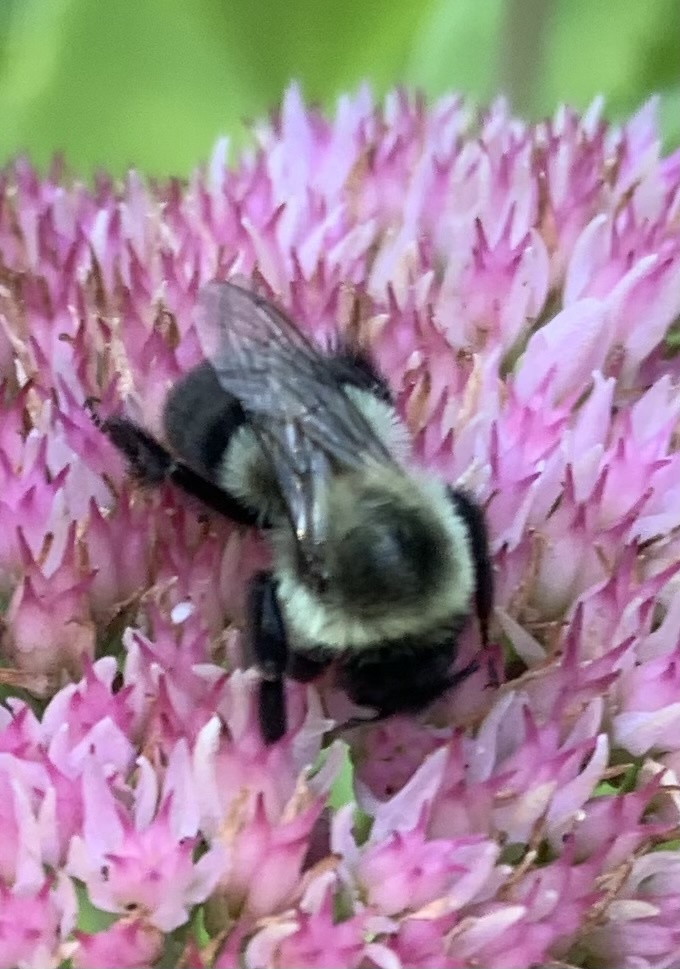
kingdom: Animalia
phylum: Arthropoda
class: Insecta
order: Hymenoptera
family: Apidae
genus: Bombus
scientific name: Bombus impatiens
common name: Common eastern bumble bee
